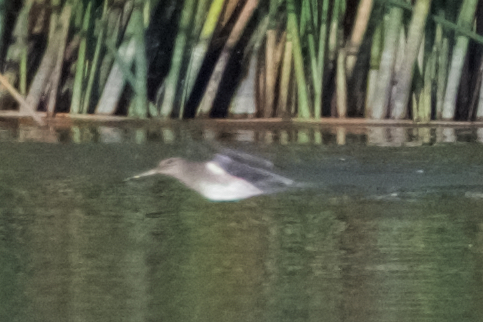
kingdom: Animalia
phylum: Chordata
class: Aves
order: Charadriiformes
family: Scolopacidae
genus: Limnodromus
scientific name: Limnodromus
